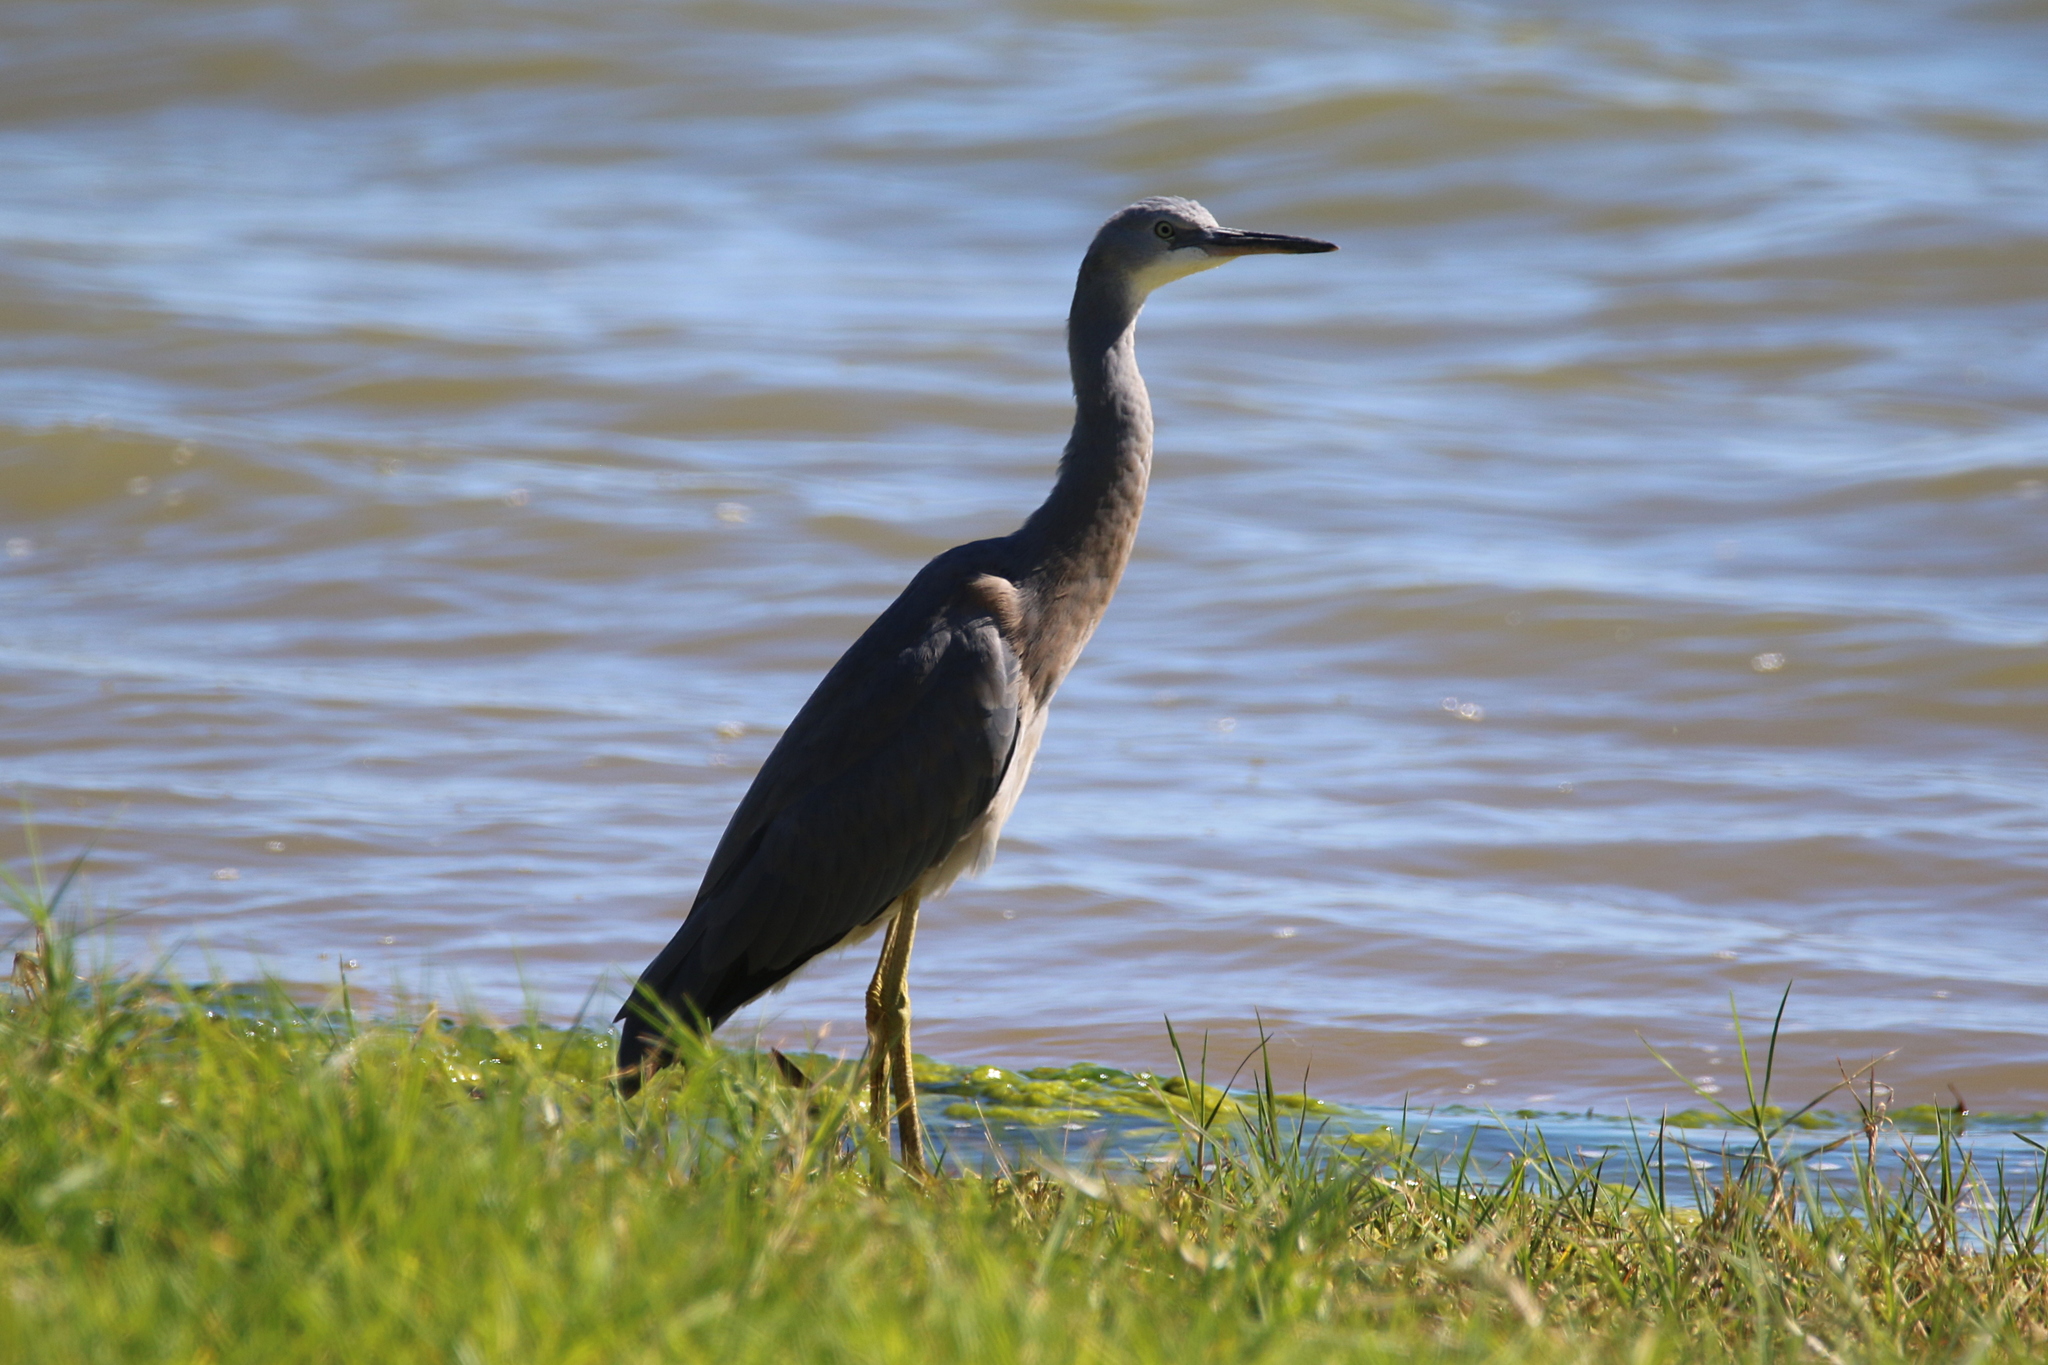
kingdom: Animalia
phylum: Chordata
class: Aves
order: Pelecaniformes
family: Ardeidae
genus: Egretta
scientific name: Egretta novaehollandiae
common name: White-faced heron
